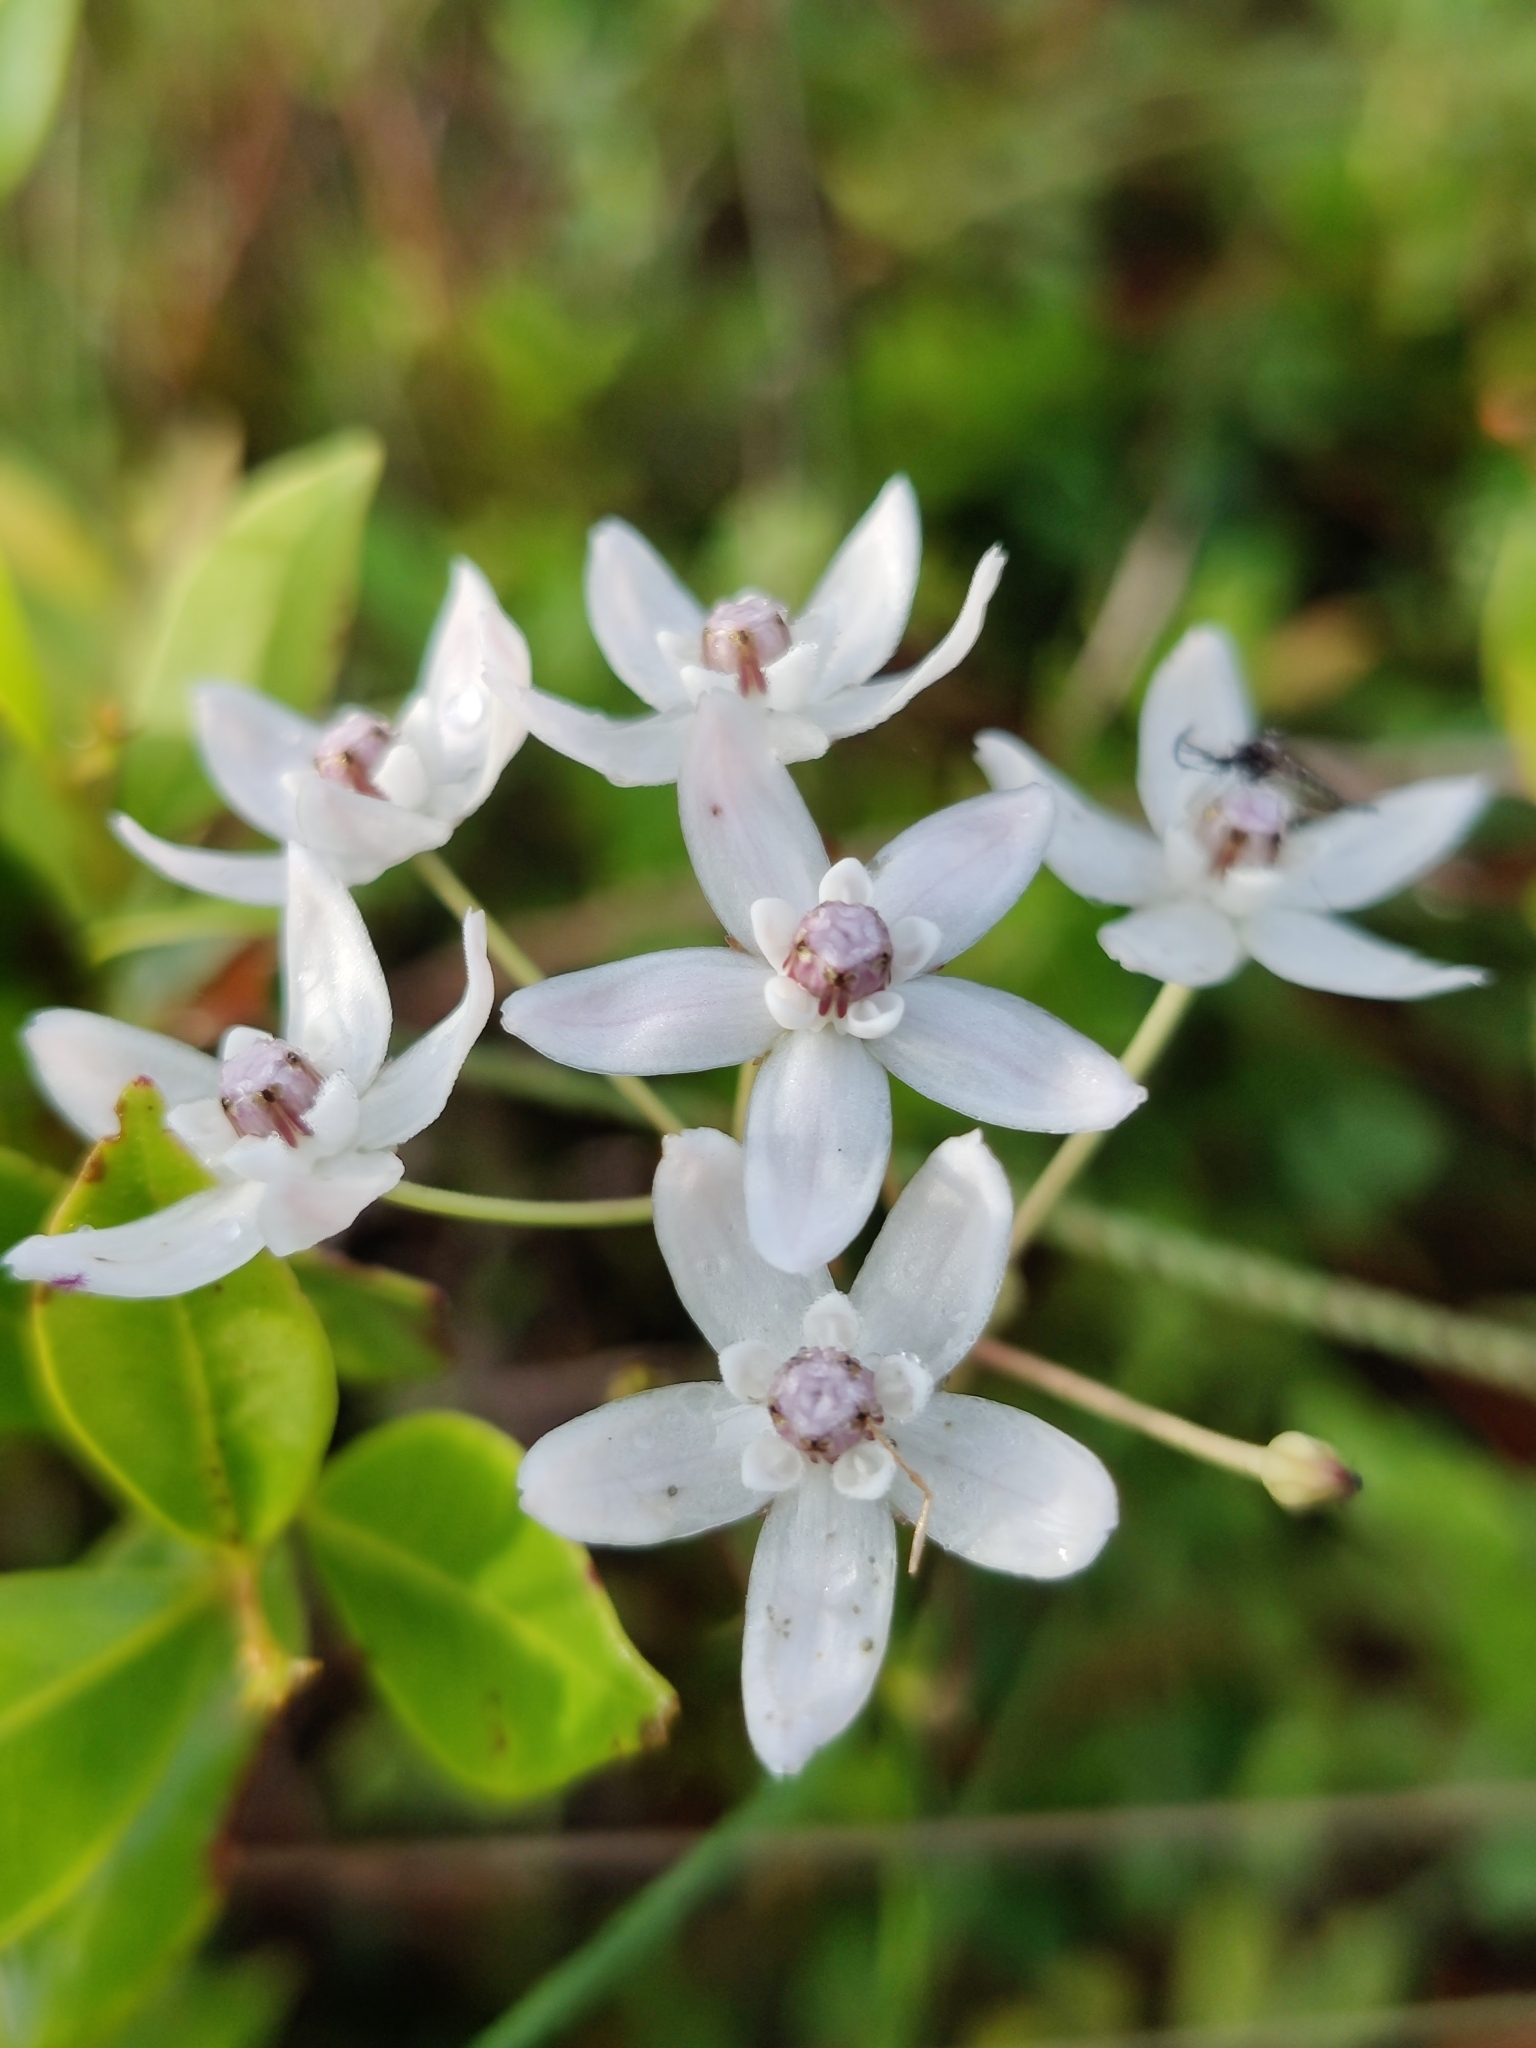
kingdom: Plantae
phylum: Tracheophyta
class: Magnoliopsida
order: Gentianales
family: Apocynaceae
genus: Asclepias
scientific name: Asclepias feayi
